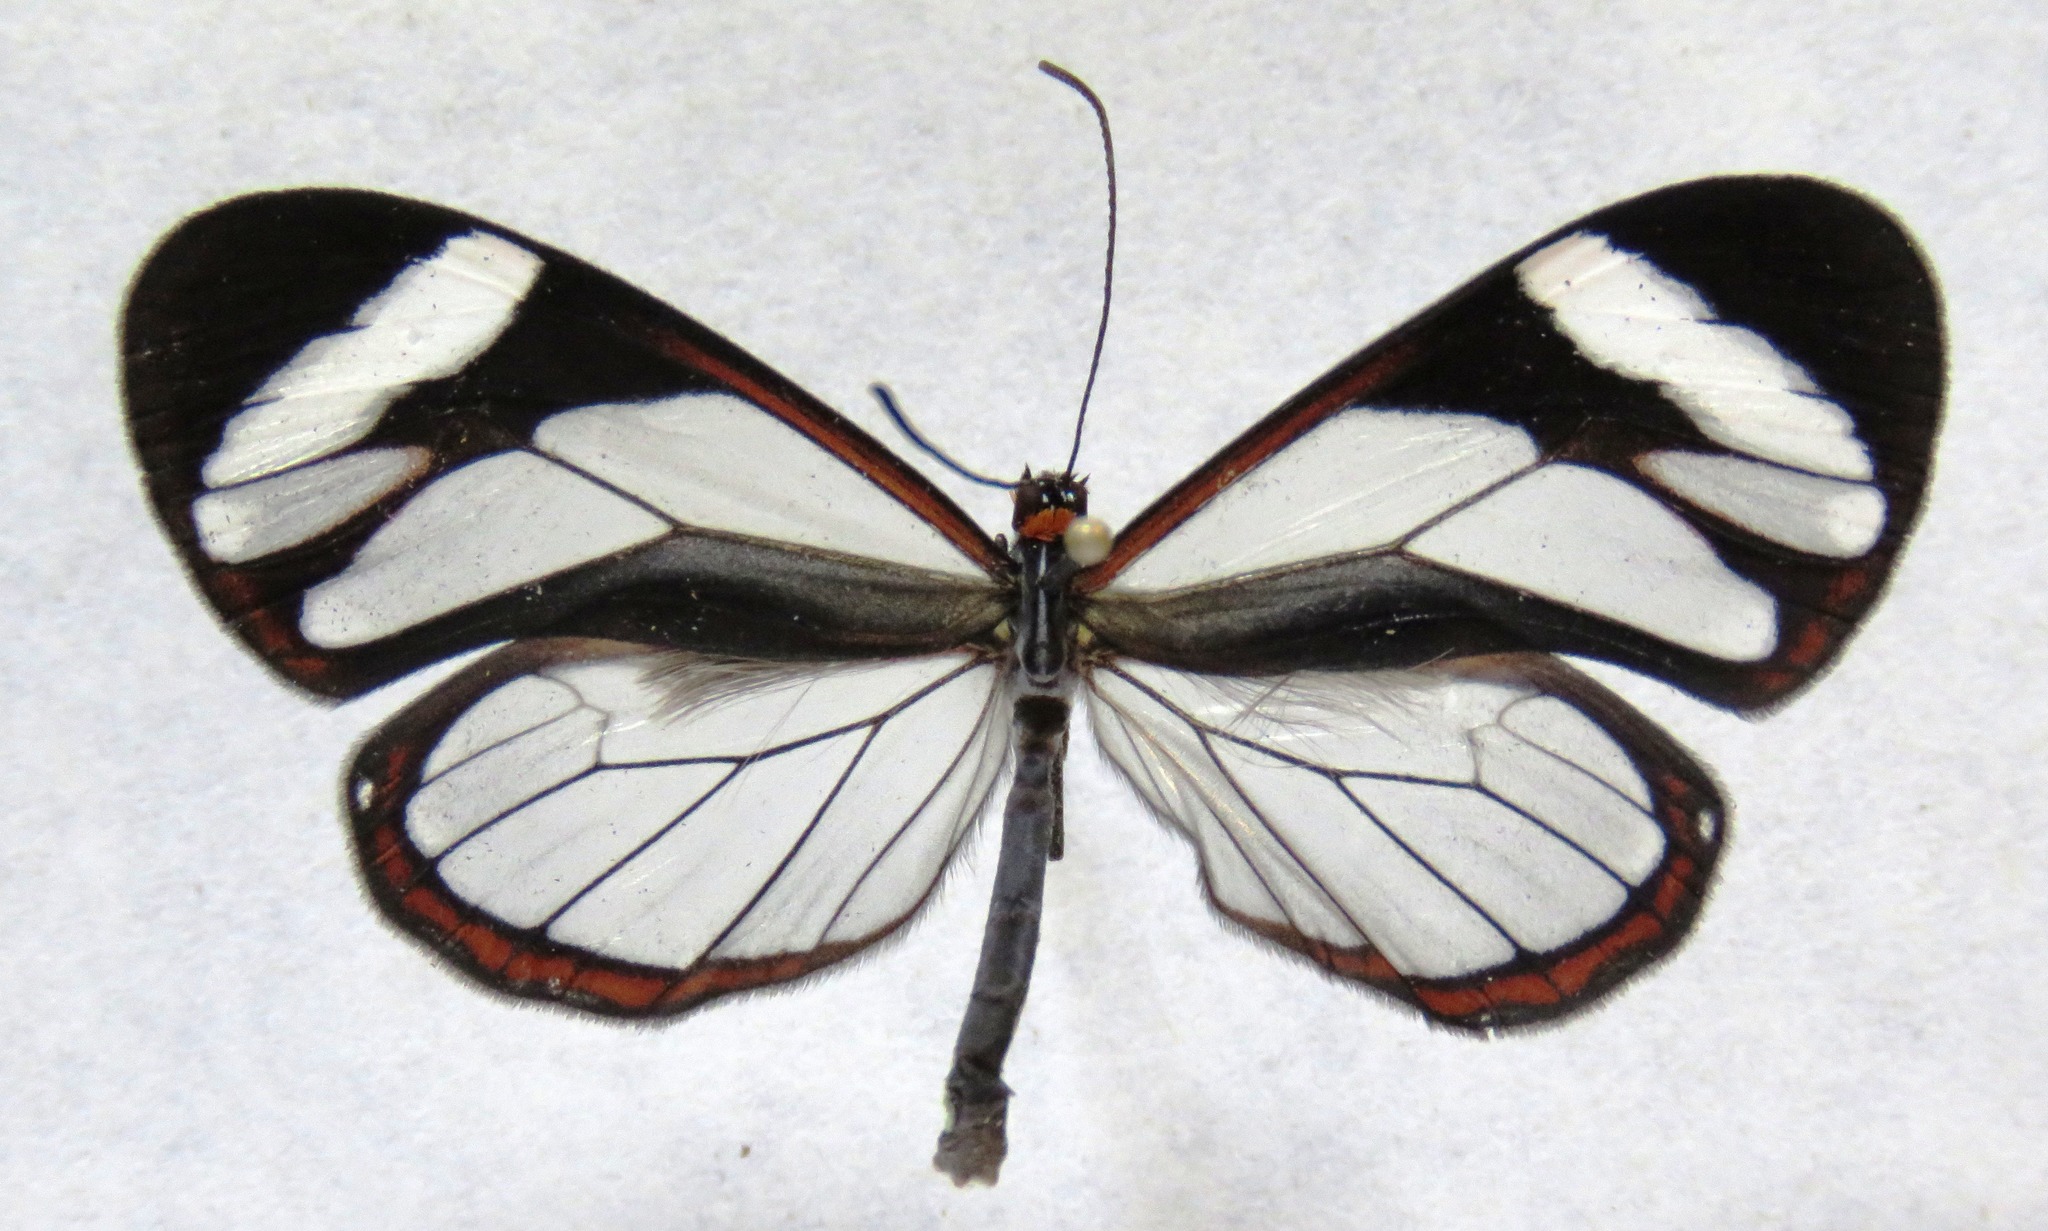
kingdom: Animalia
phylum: Arthropoda
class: Insecta
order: Lepidoptera
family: Nymphalidae
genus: Ithomia
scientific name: Ithomia patilla
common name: Patilla clearwing
